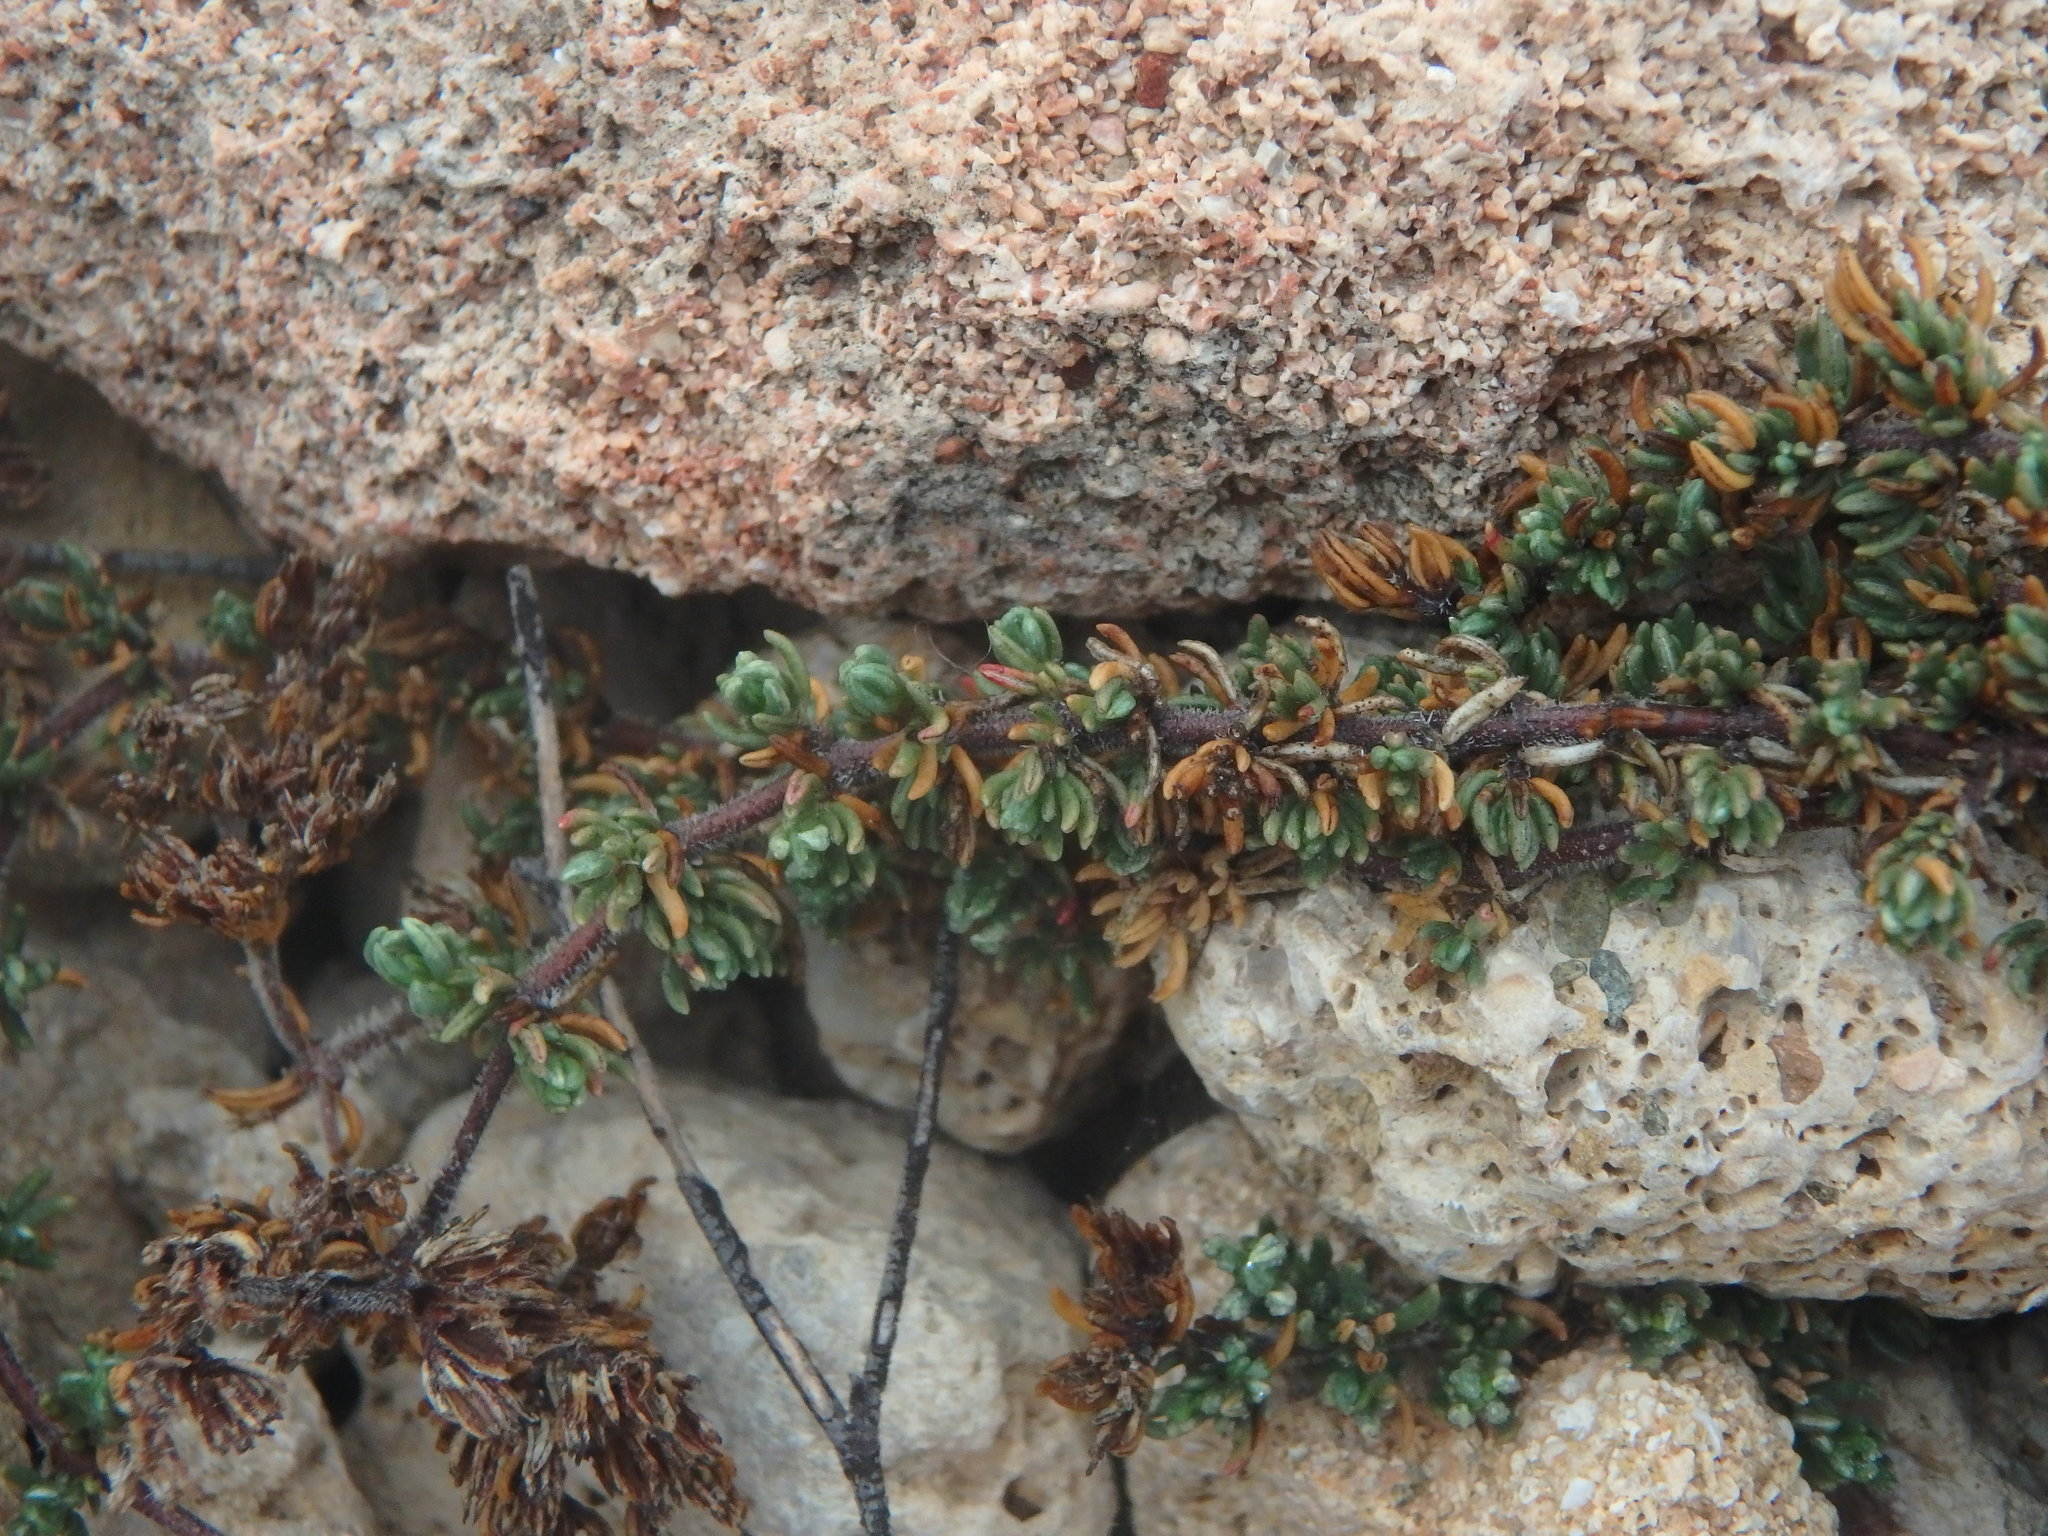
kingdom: Plantae
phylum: Tracheophyta
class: Magnoliopsida
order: Caryophyllales
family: Frankeniaceae
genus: Frankenia
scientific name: Frankenia hirsuta
